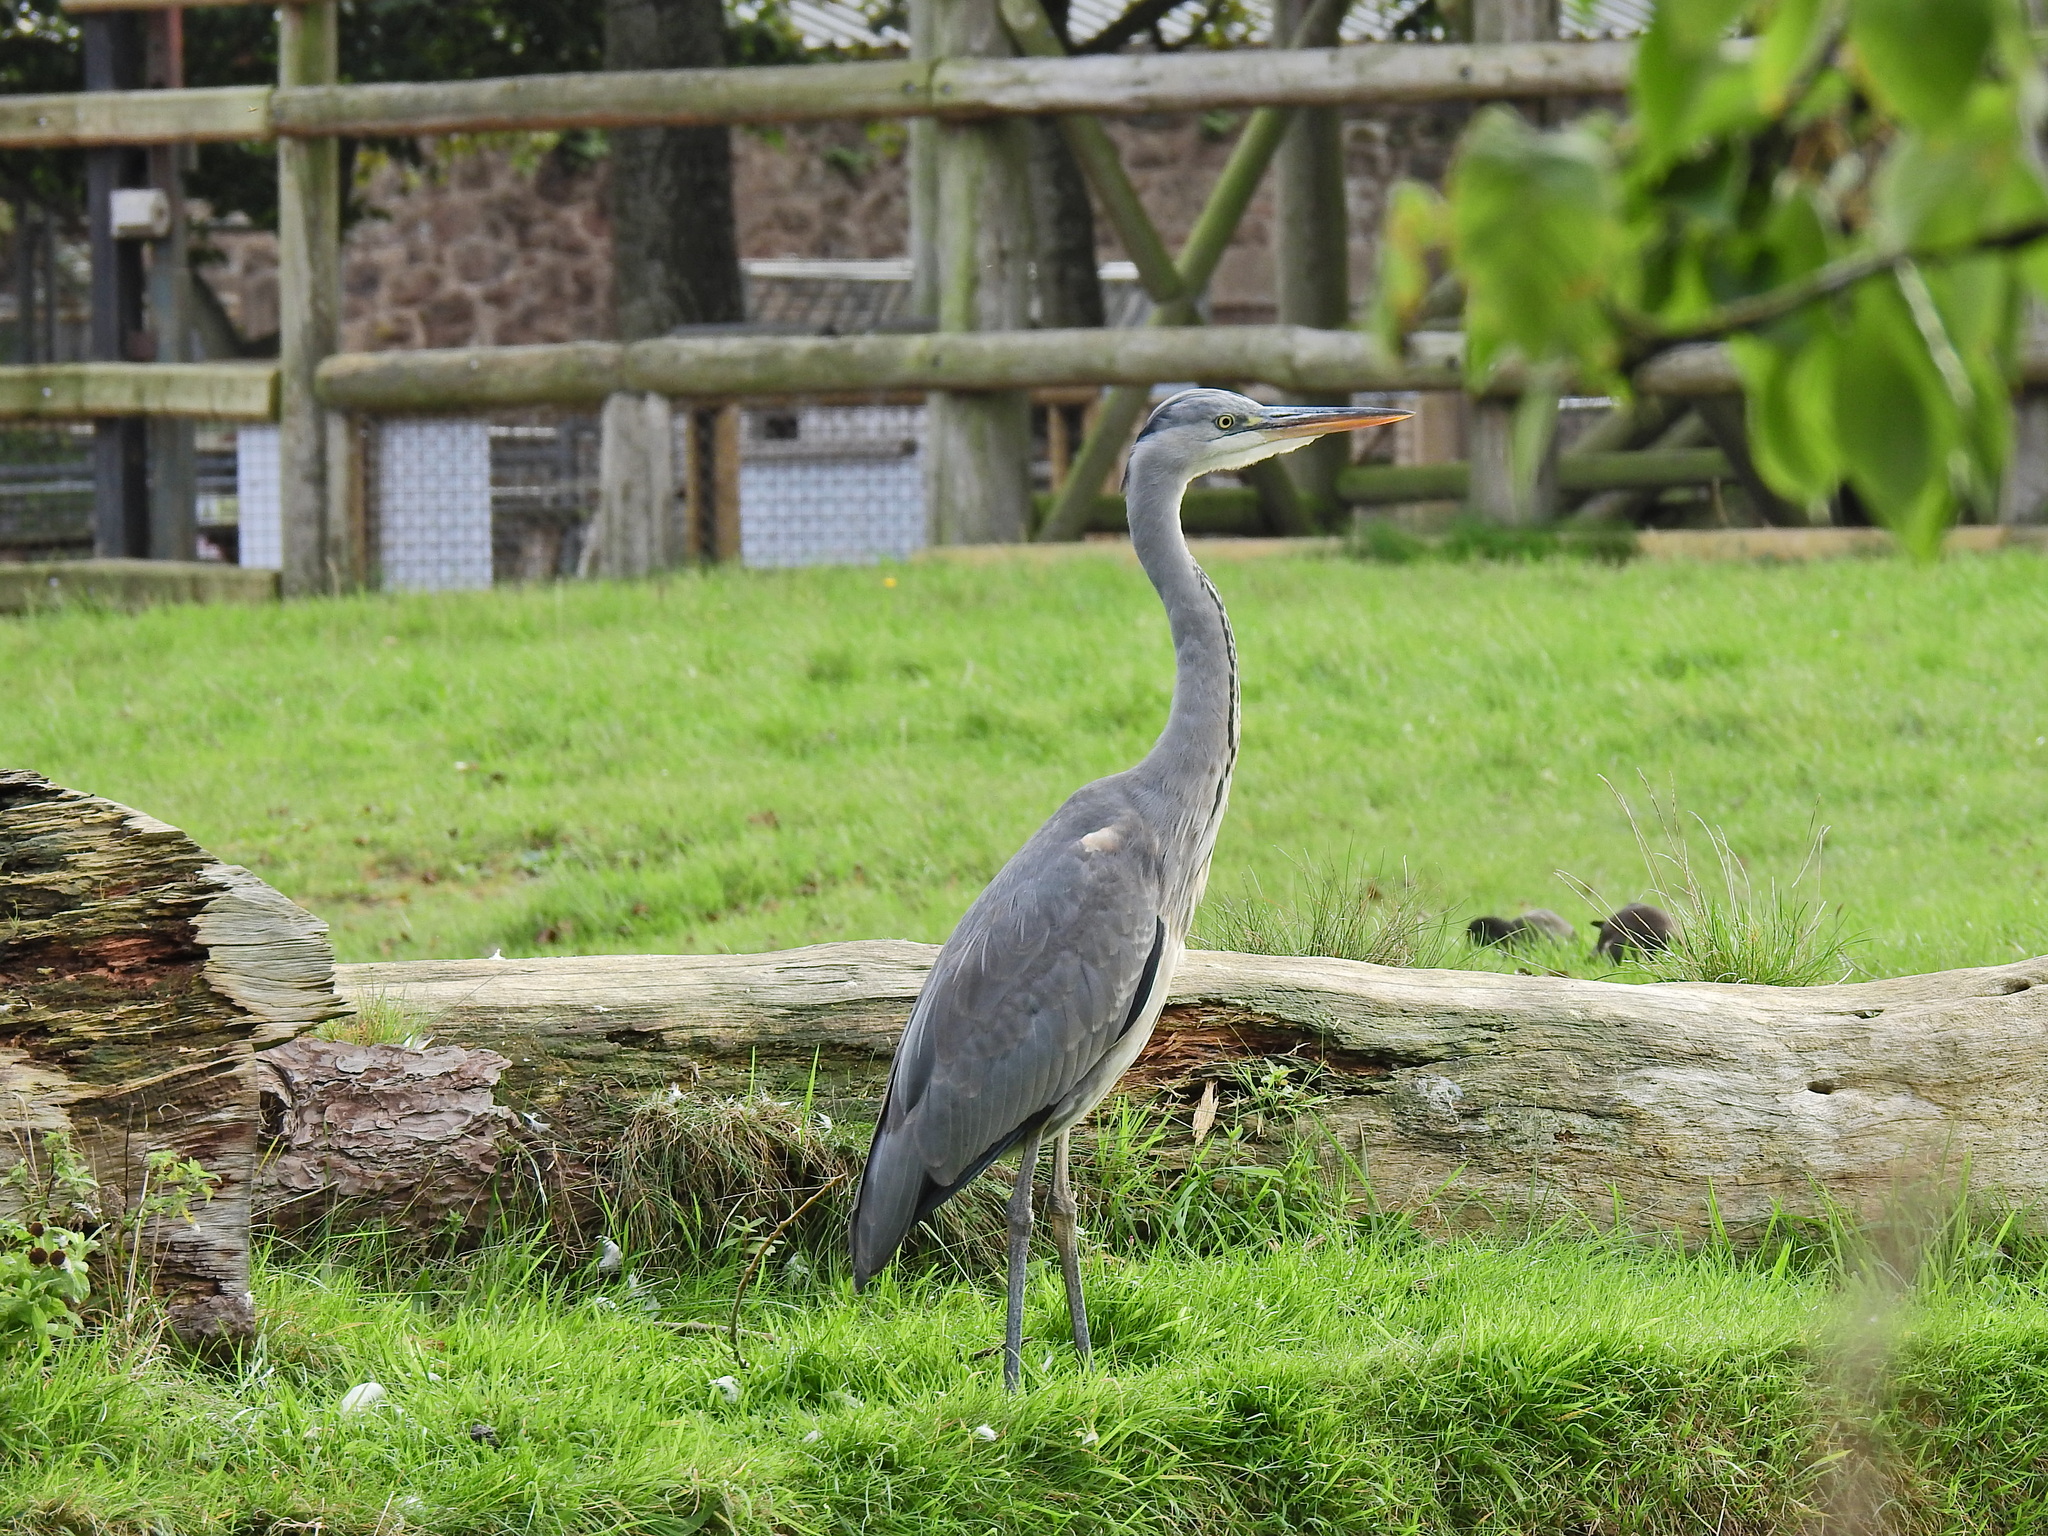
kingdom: Animalia
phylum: Chordata
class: Aves
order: Pelecaniformes
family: Ardeidae
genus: Ardea
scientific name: Ardea cinerea
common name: Grey heron
